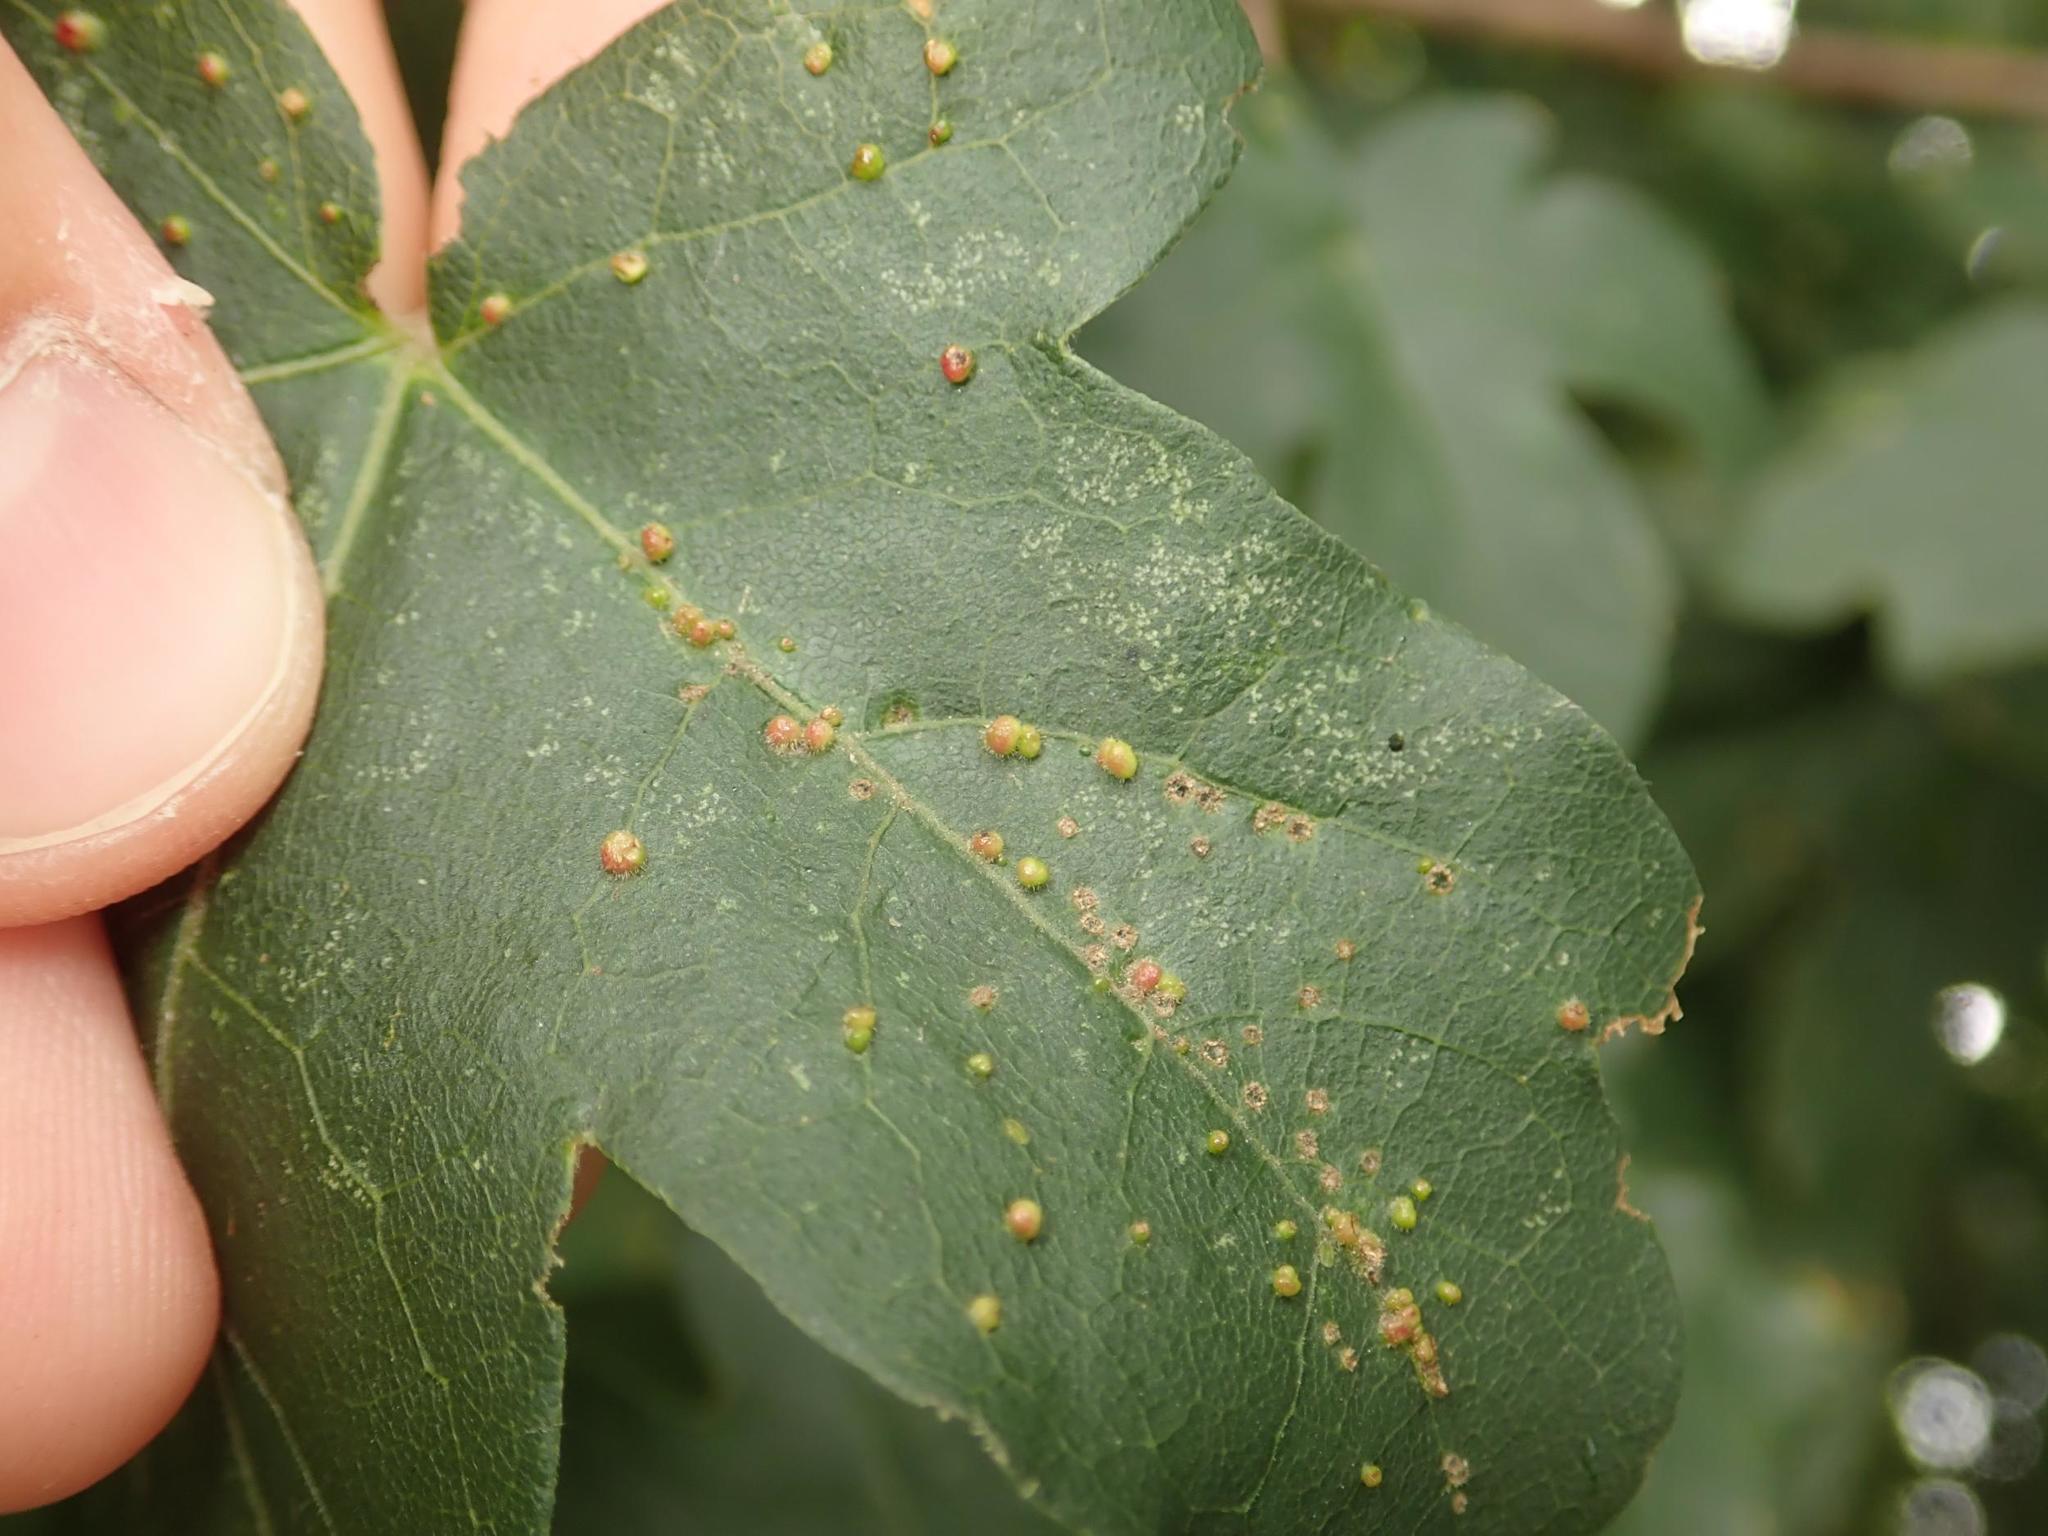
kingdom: Animalia
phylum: Arthropoda
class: Arachnida
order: Trombidiformes
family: Eriophyidae
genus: Aceria
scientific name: Aceria myriadeum
